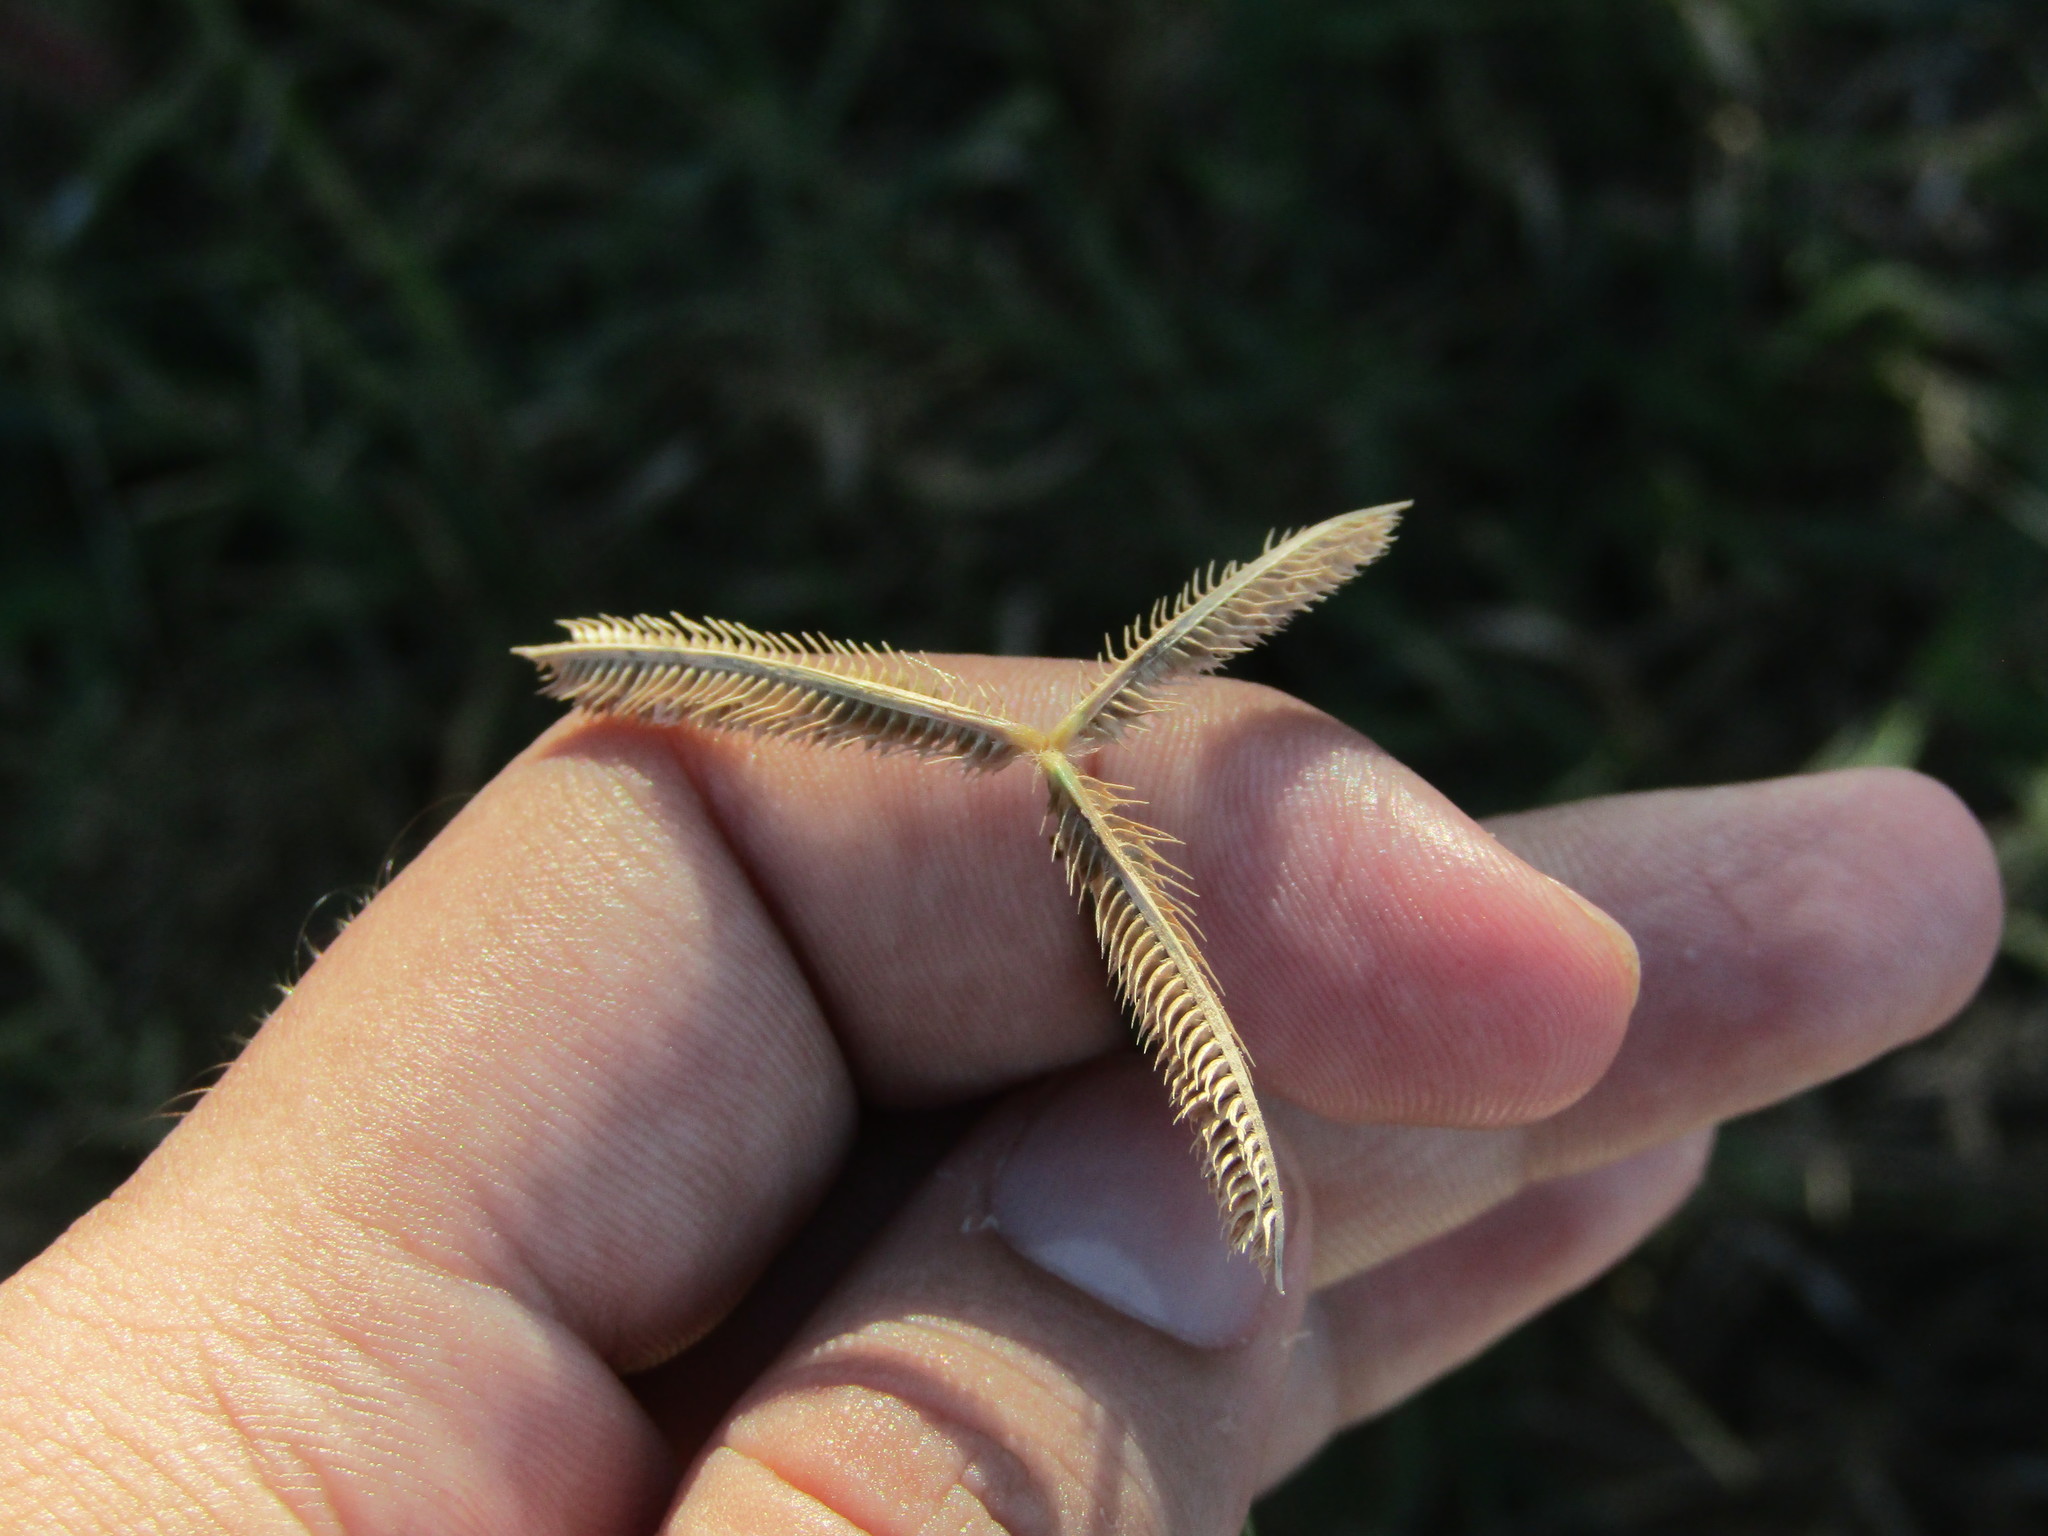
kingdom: Plantae
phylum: Tracheophyta
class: Liliopsida
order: Poales
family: Poaceae
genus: Dactyloctenium
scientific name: Dactyloctenium aegyptium
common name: Egyptian grass
